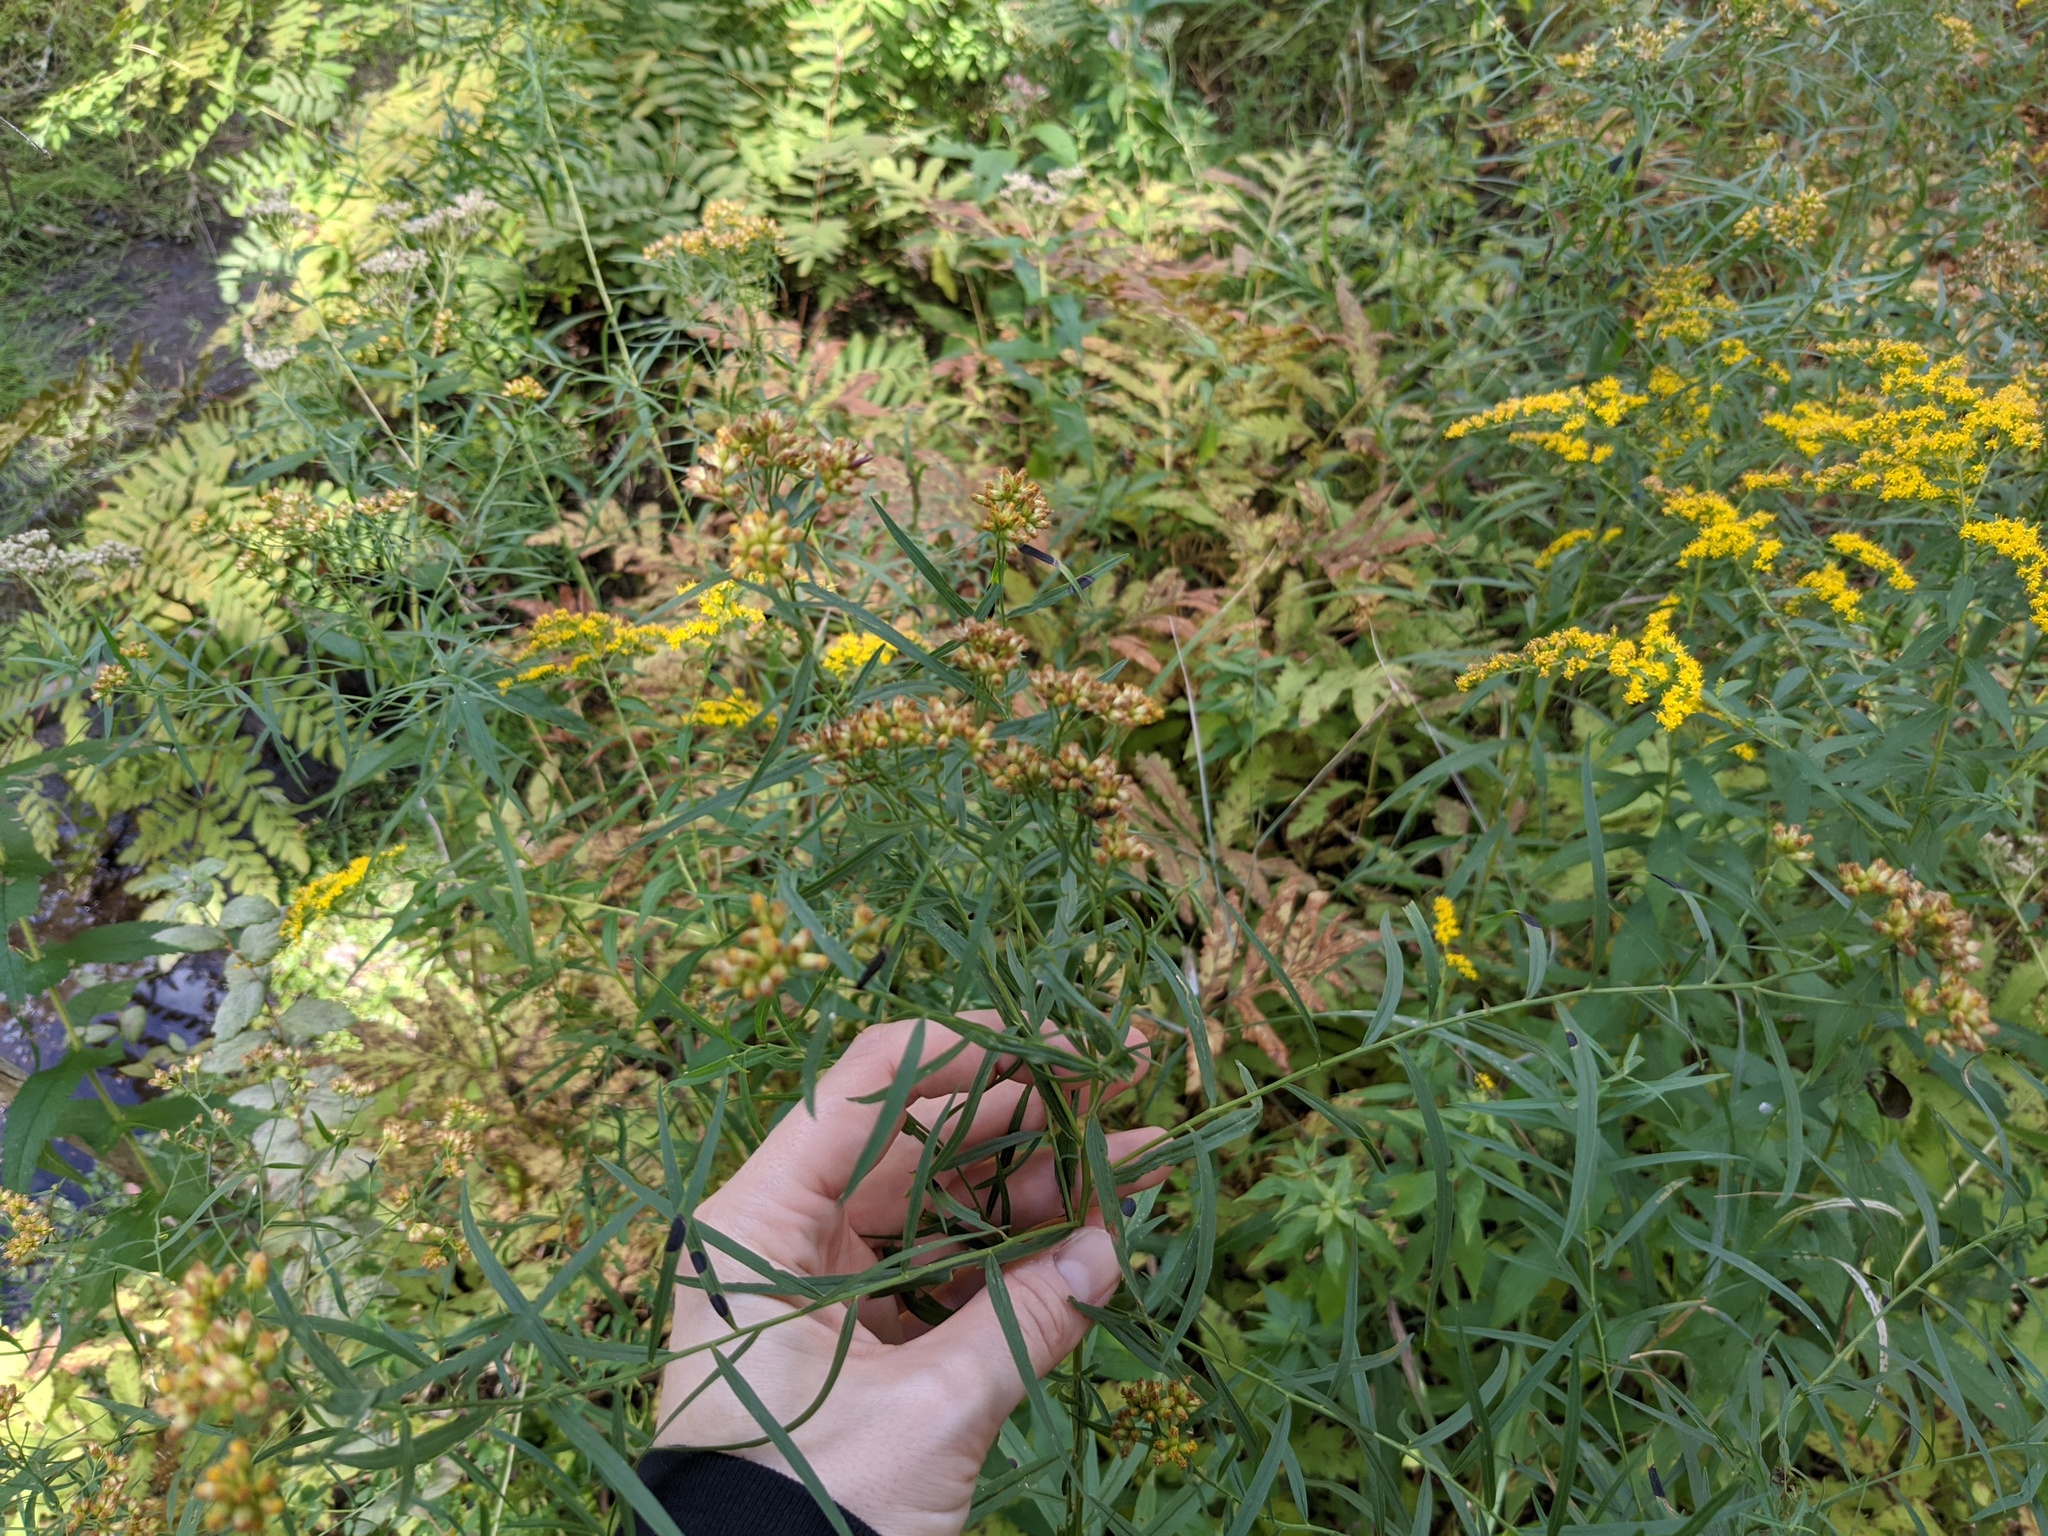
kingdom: Plantae
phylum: Tracheophyta
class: Magnoliopsida
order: Asterales
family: Asteraceae
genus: Euthamia
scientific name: Euthamia graminifolia
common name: Common goldentop
